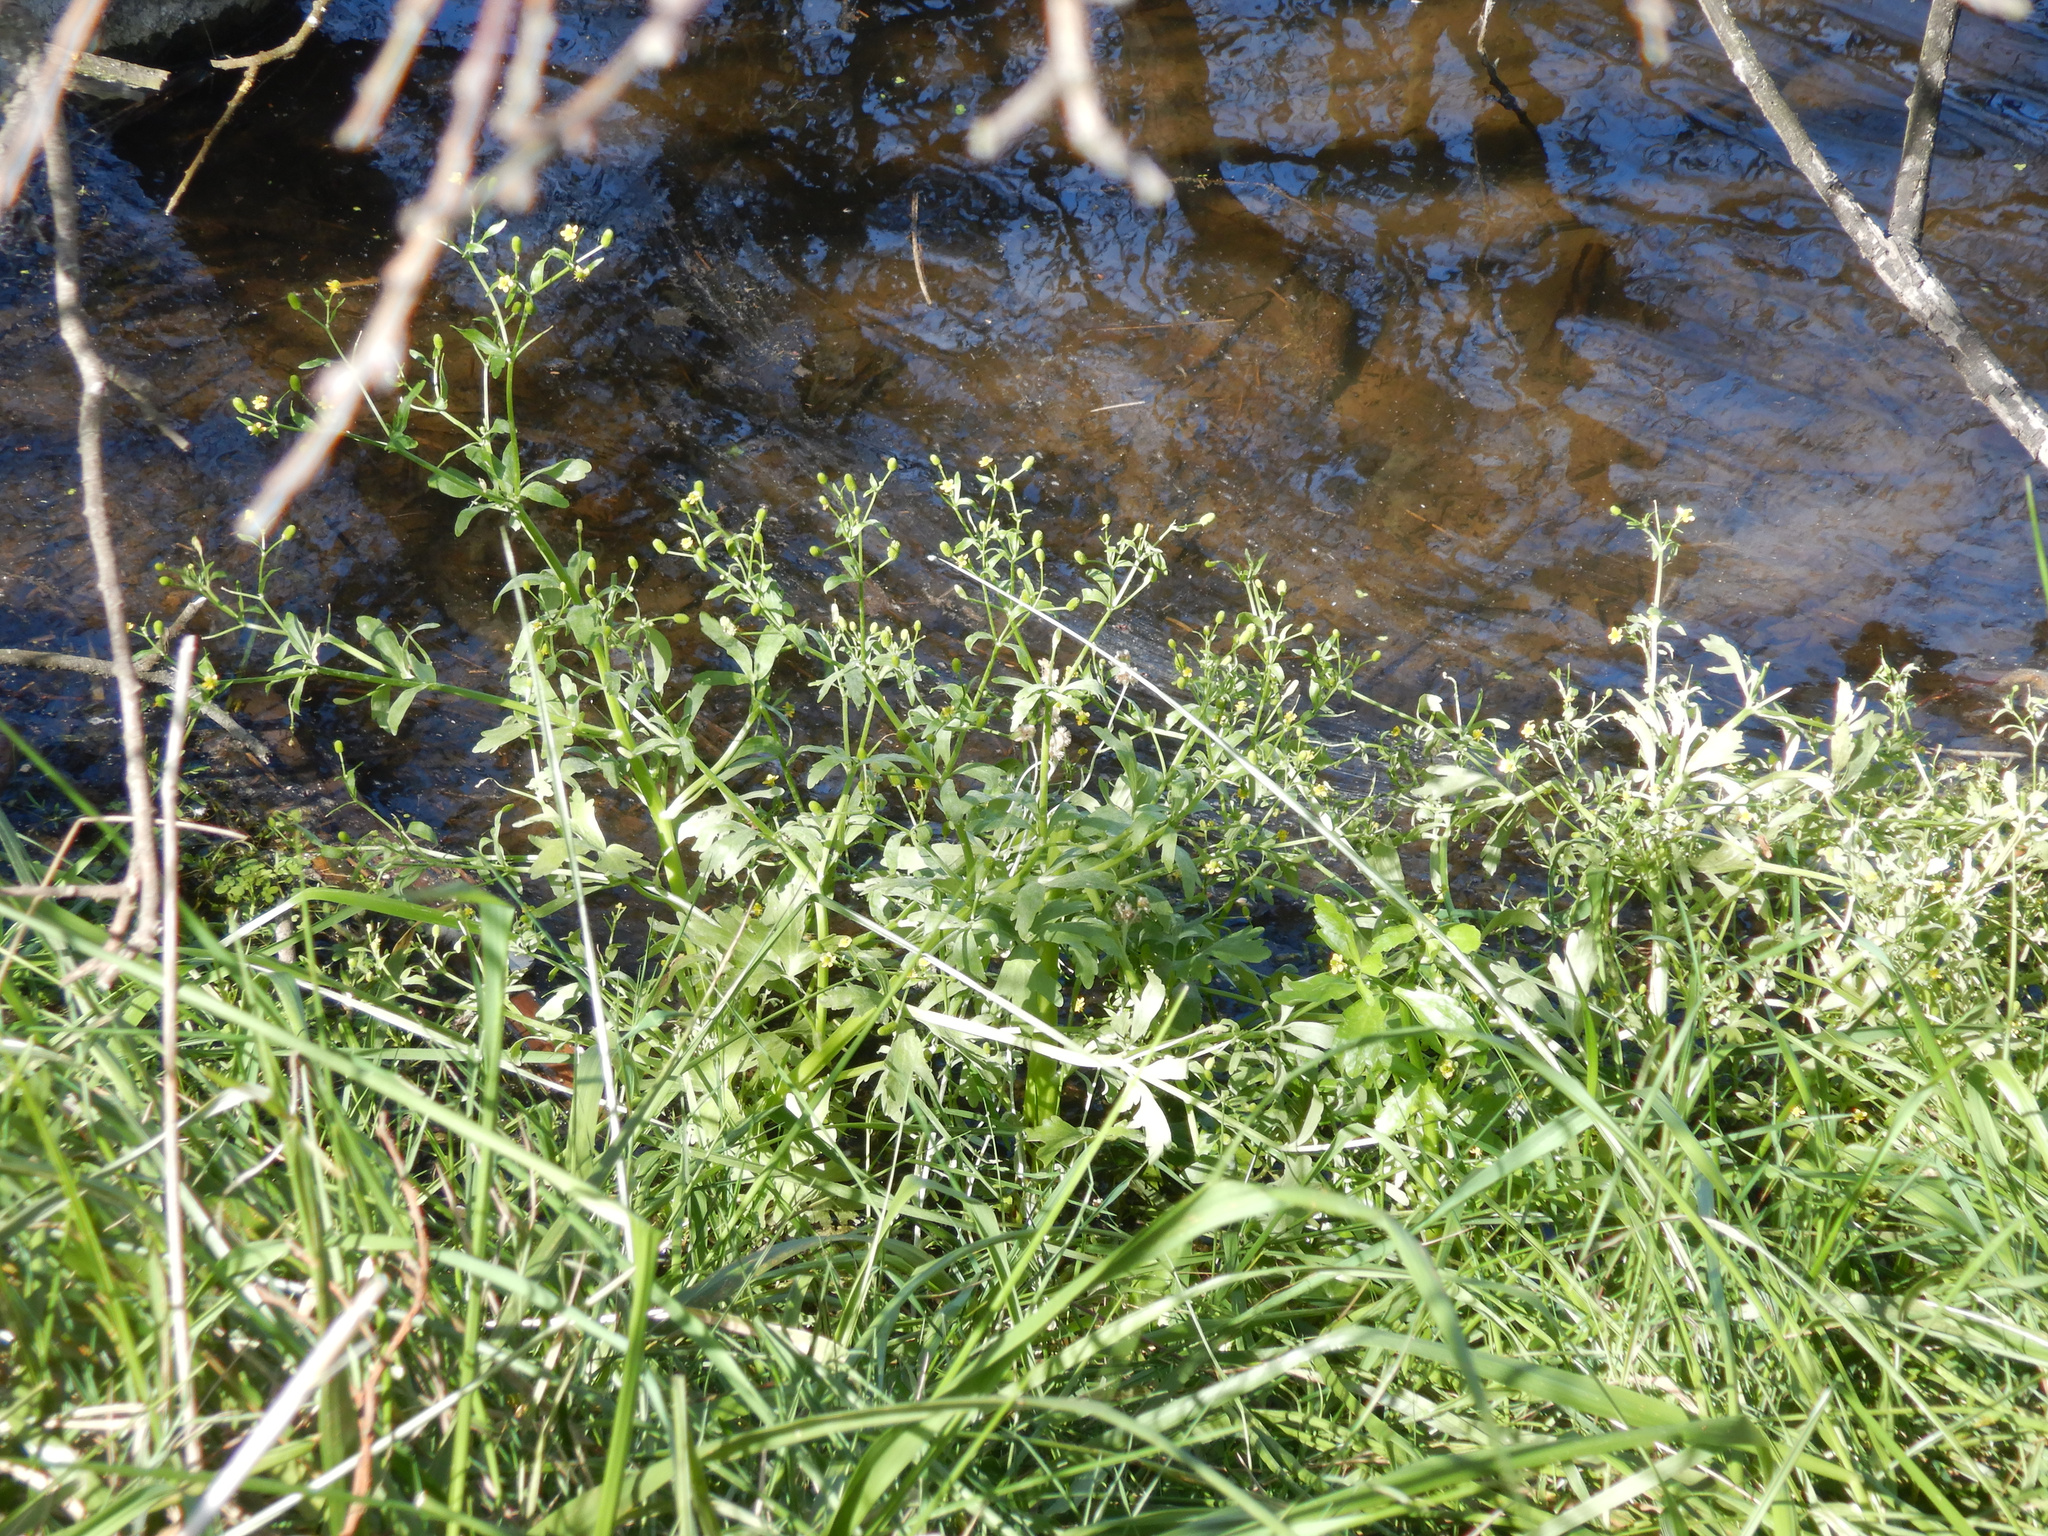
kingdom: Plantae
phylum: Tracheophyta
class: Magnoliopsida
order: Ranunculales
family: Ranunculaceae
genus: Ranunculus
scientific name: Ranunculus sceleratus
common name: Celery-leaved buttercup
